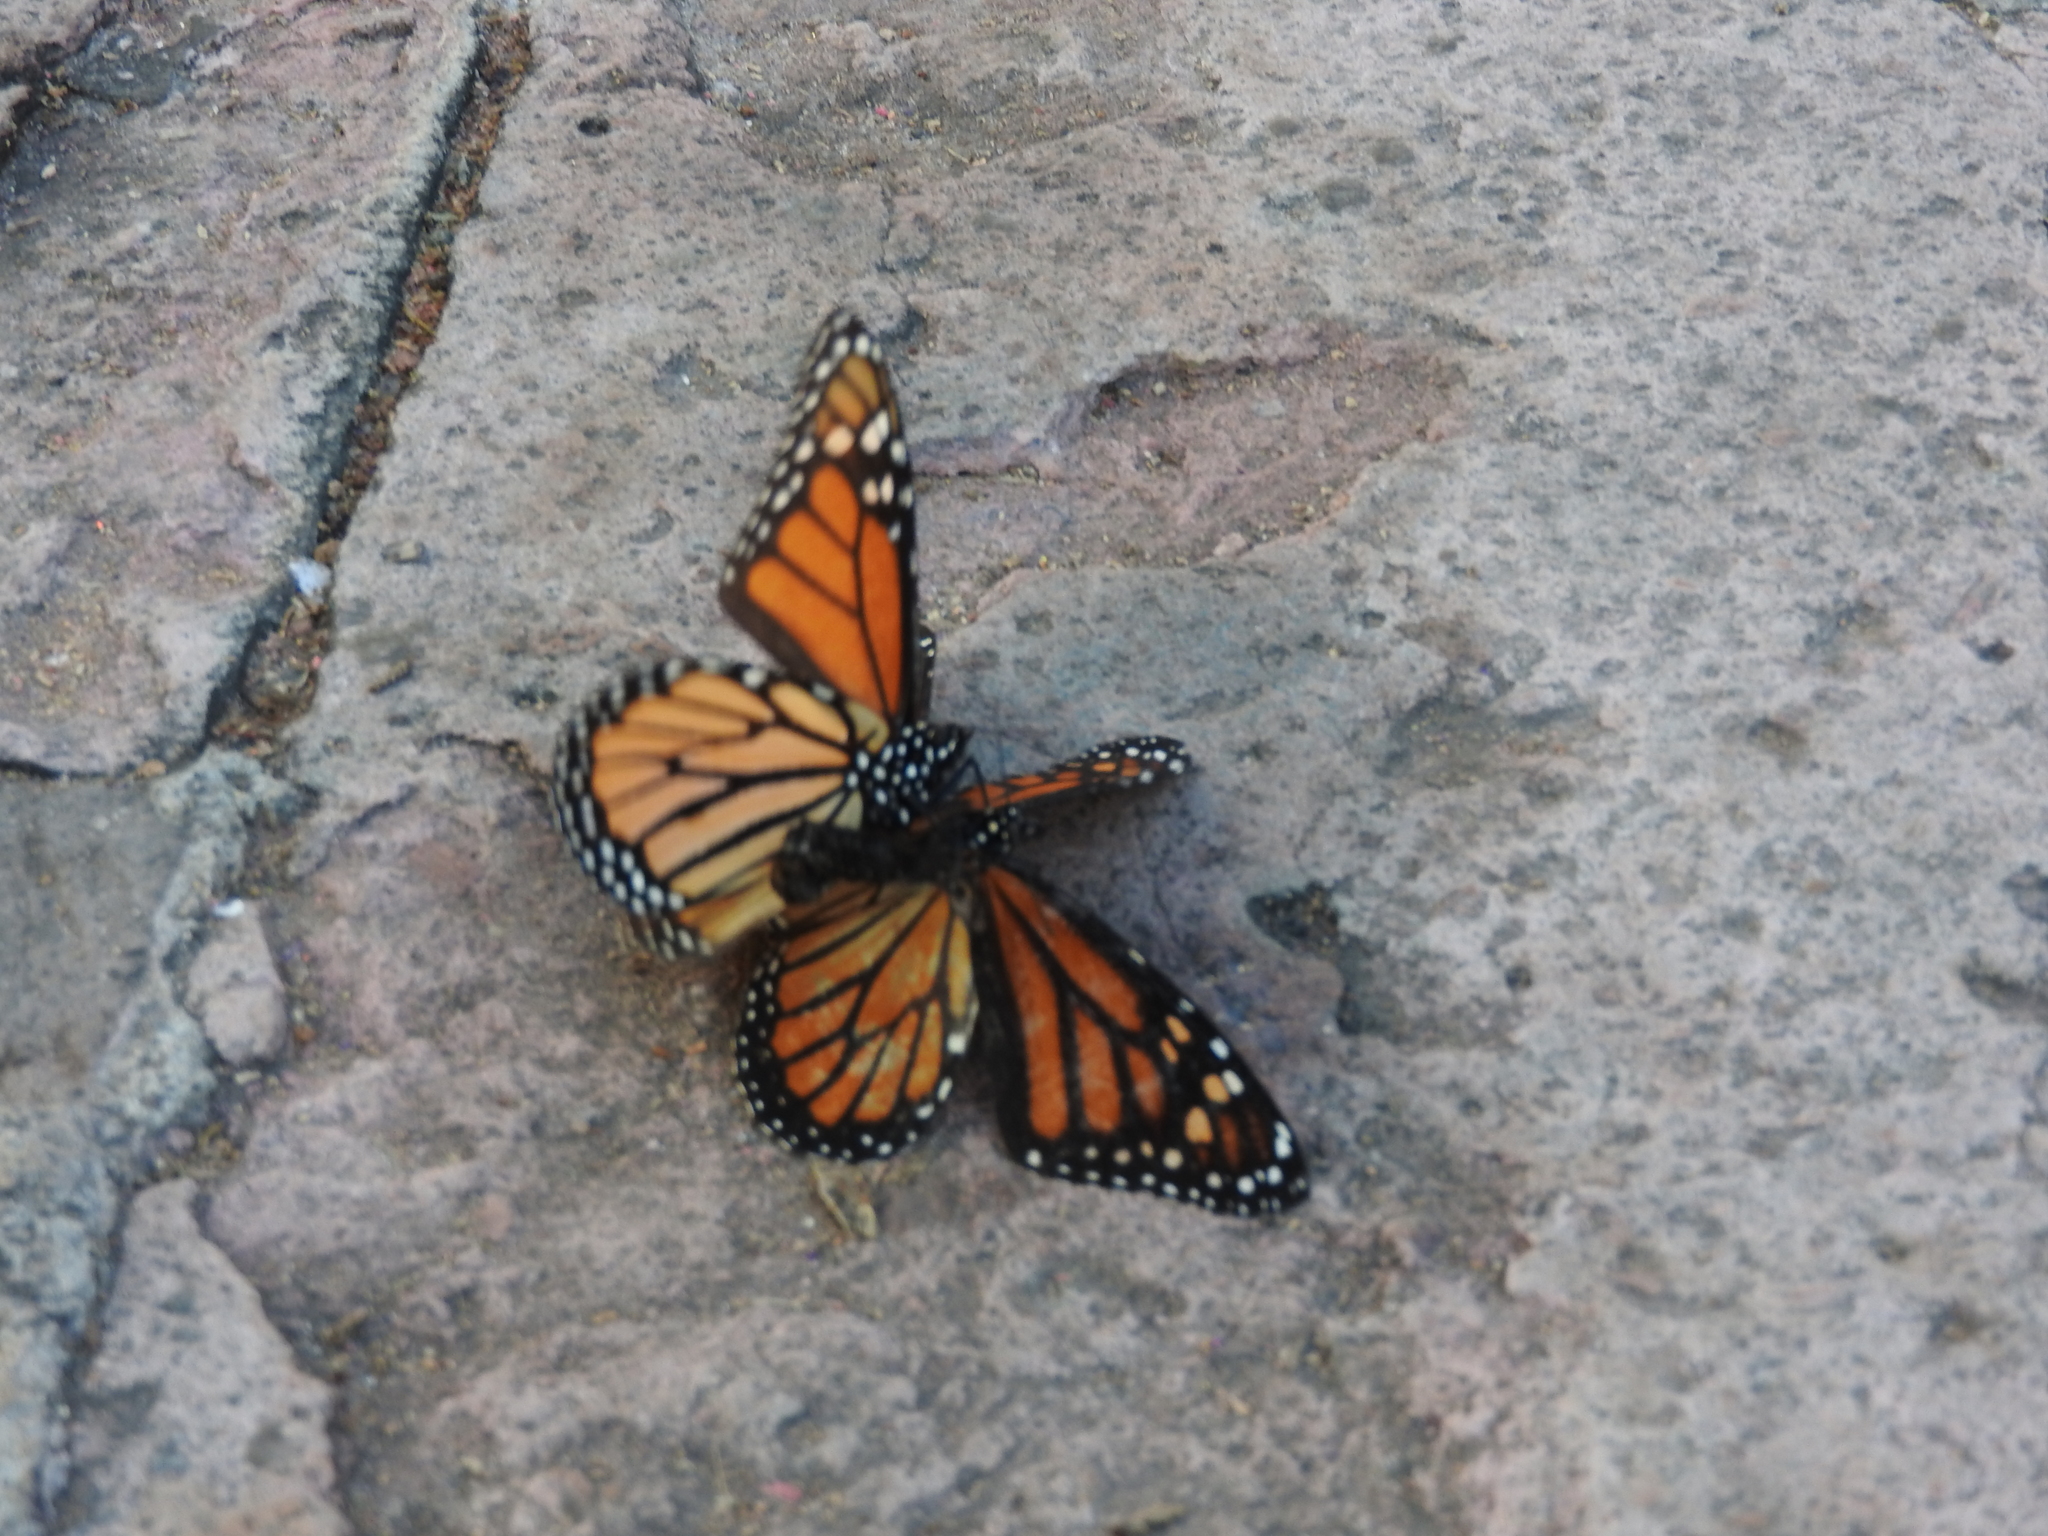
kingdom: Animalia
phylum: Arthropoda
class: Insecta
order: Lepidoptera
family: Nymphalidae
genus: Danaus
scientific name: Danaus plexippus
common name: Monarch
